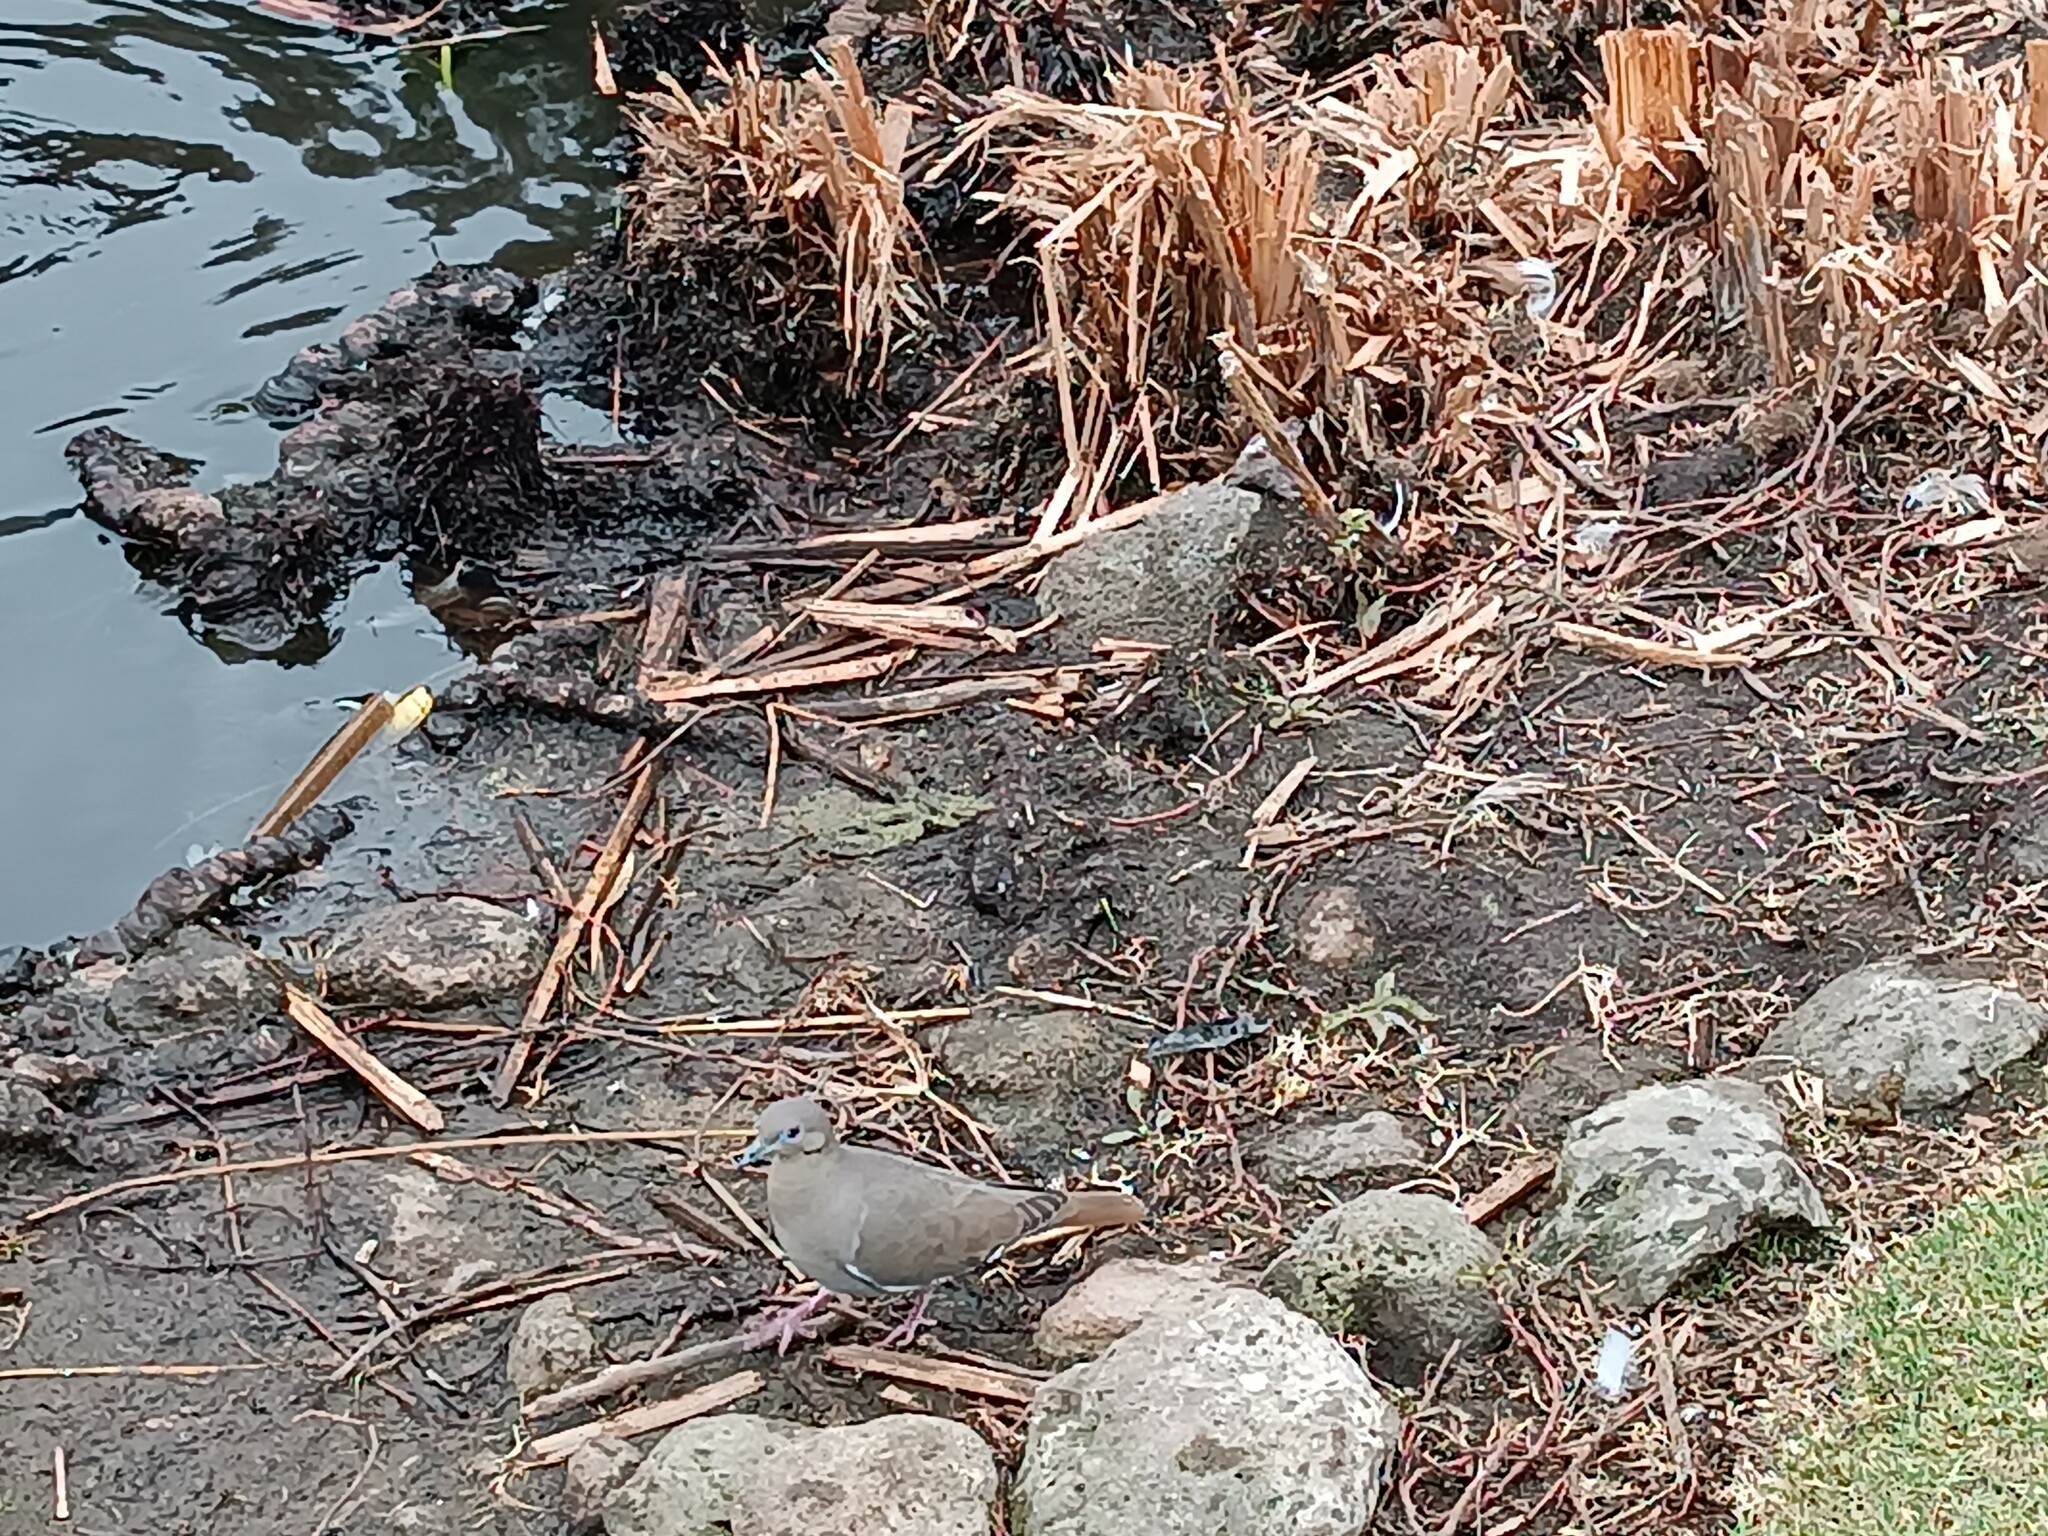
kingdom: Animalia
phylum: Chordata
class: Aves
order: Columbiformes
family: Columbidae
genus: Zenaida
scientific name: Zenaida asiatica
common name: White-winged dove
